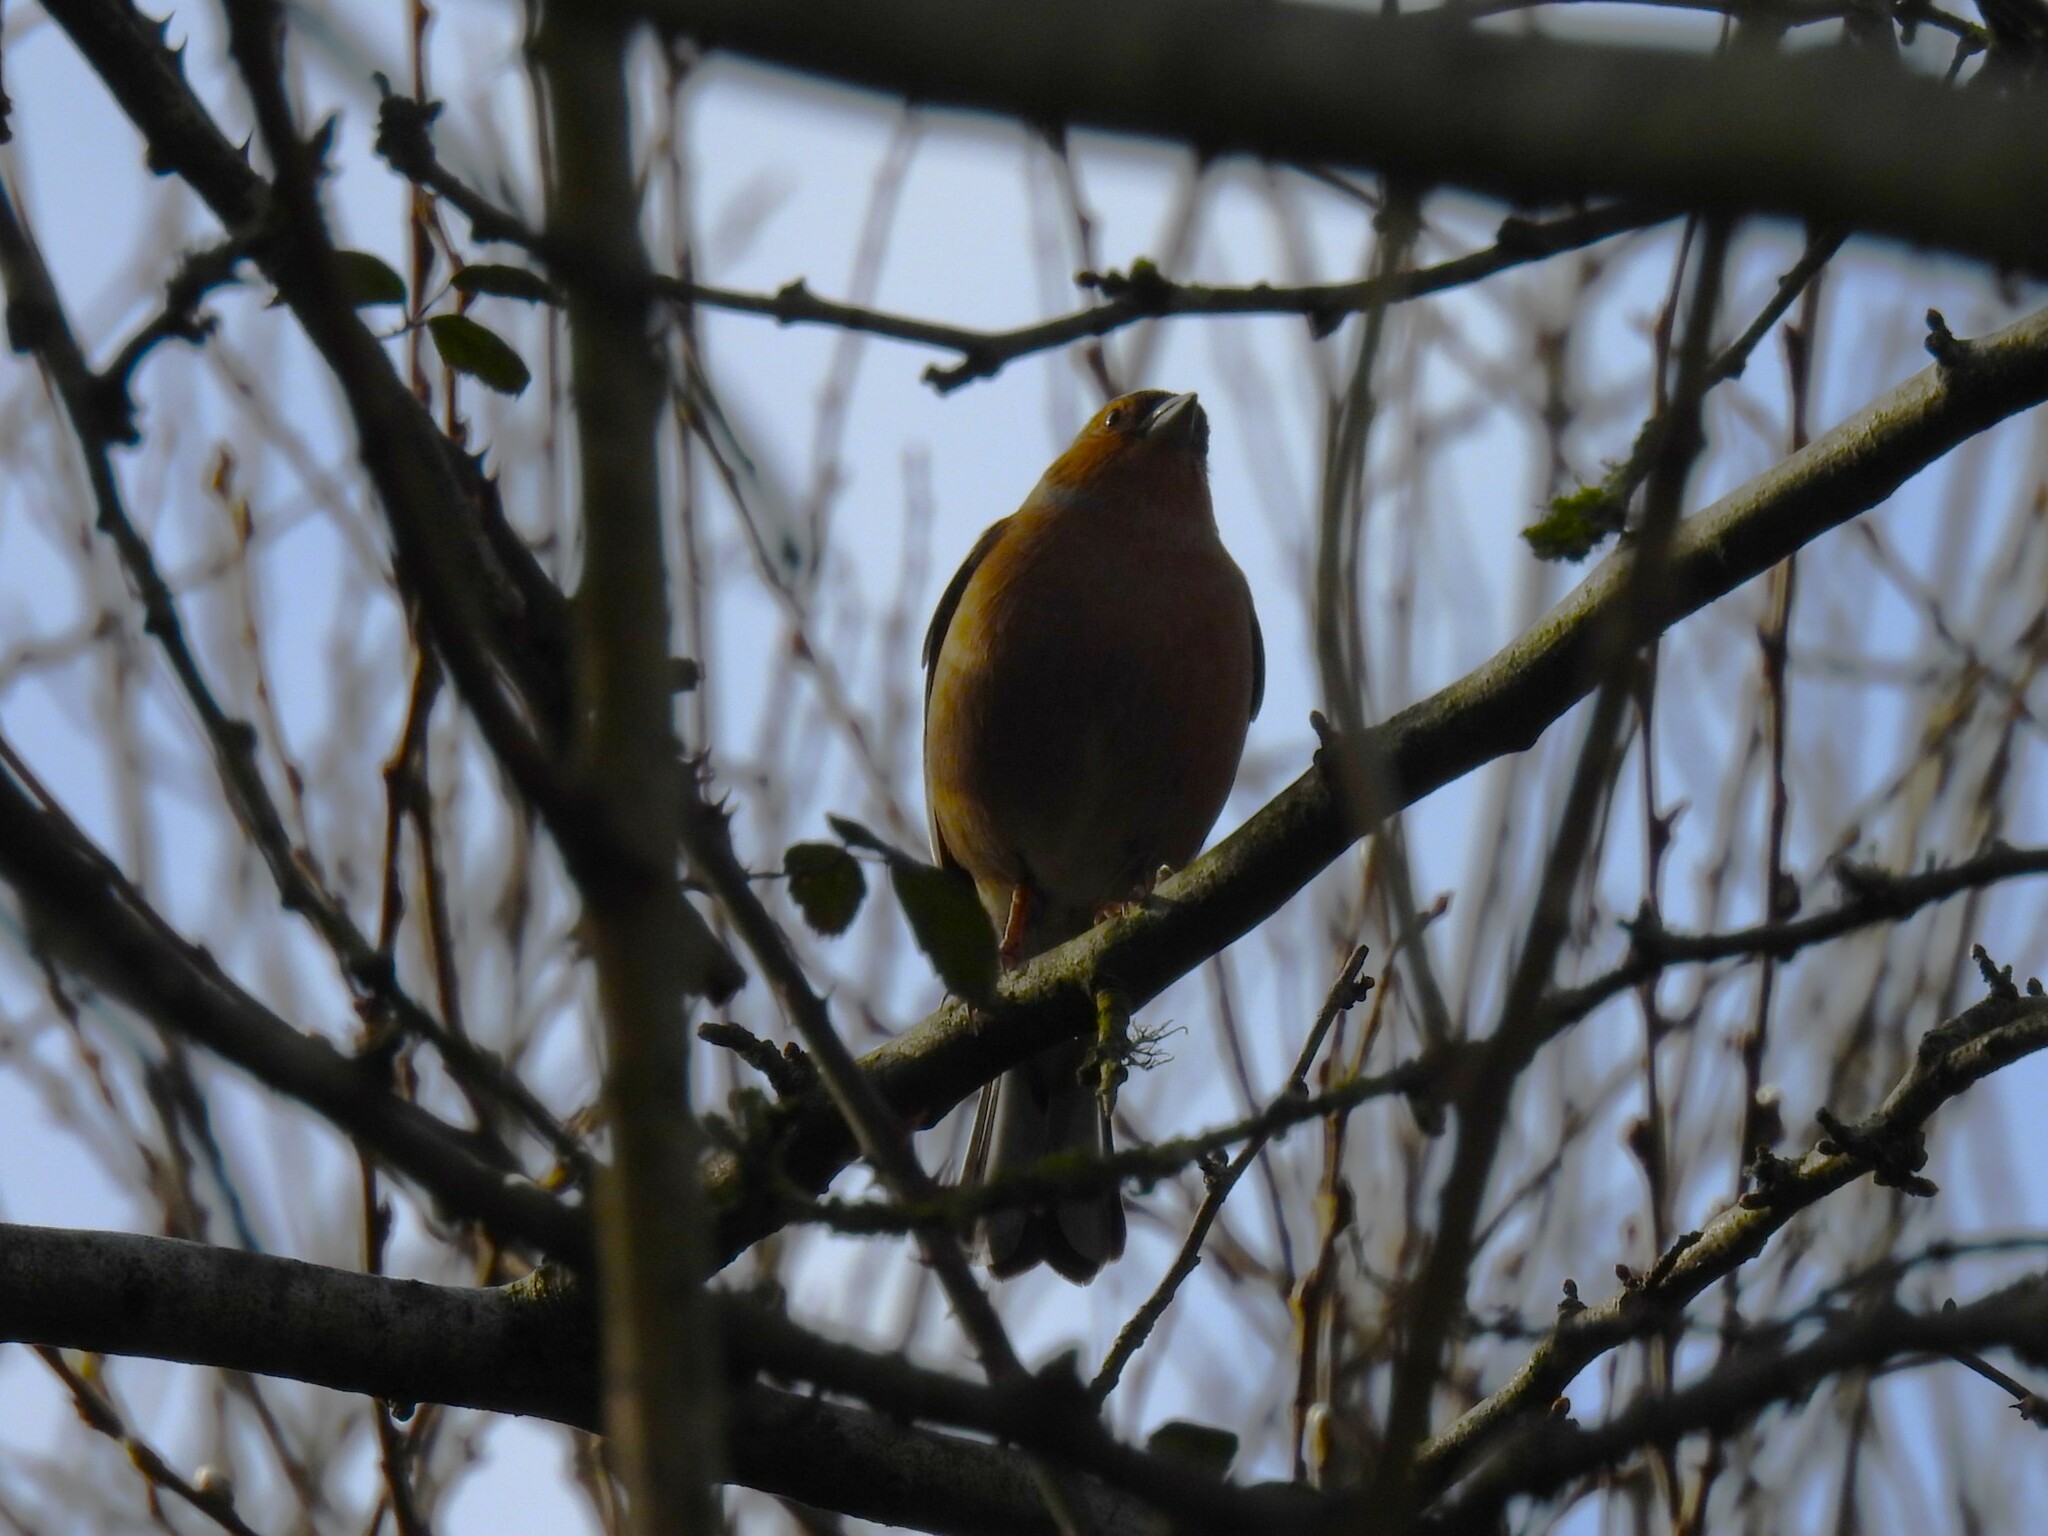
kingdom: Animalia
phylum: Chordata
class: Aves
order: Passeriformes
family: Fringillidae
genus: Fringilla
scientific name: Fringilla coelebs
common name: Common chaffinch
